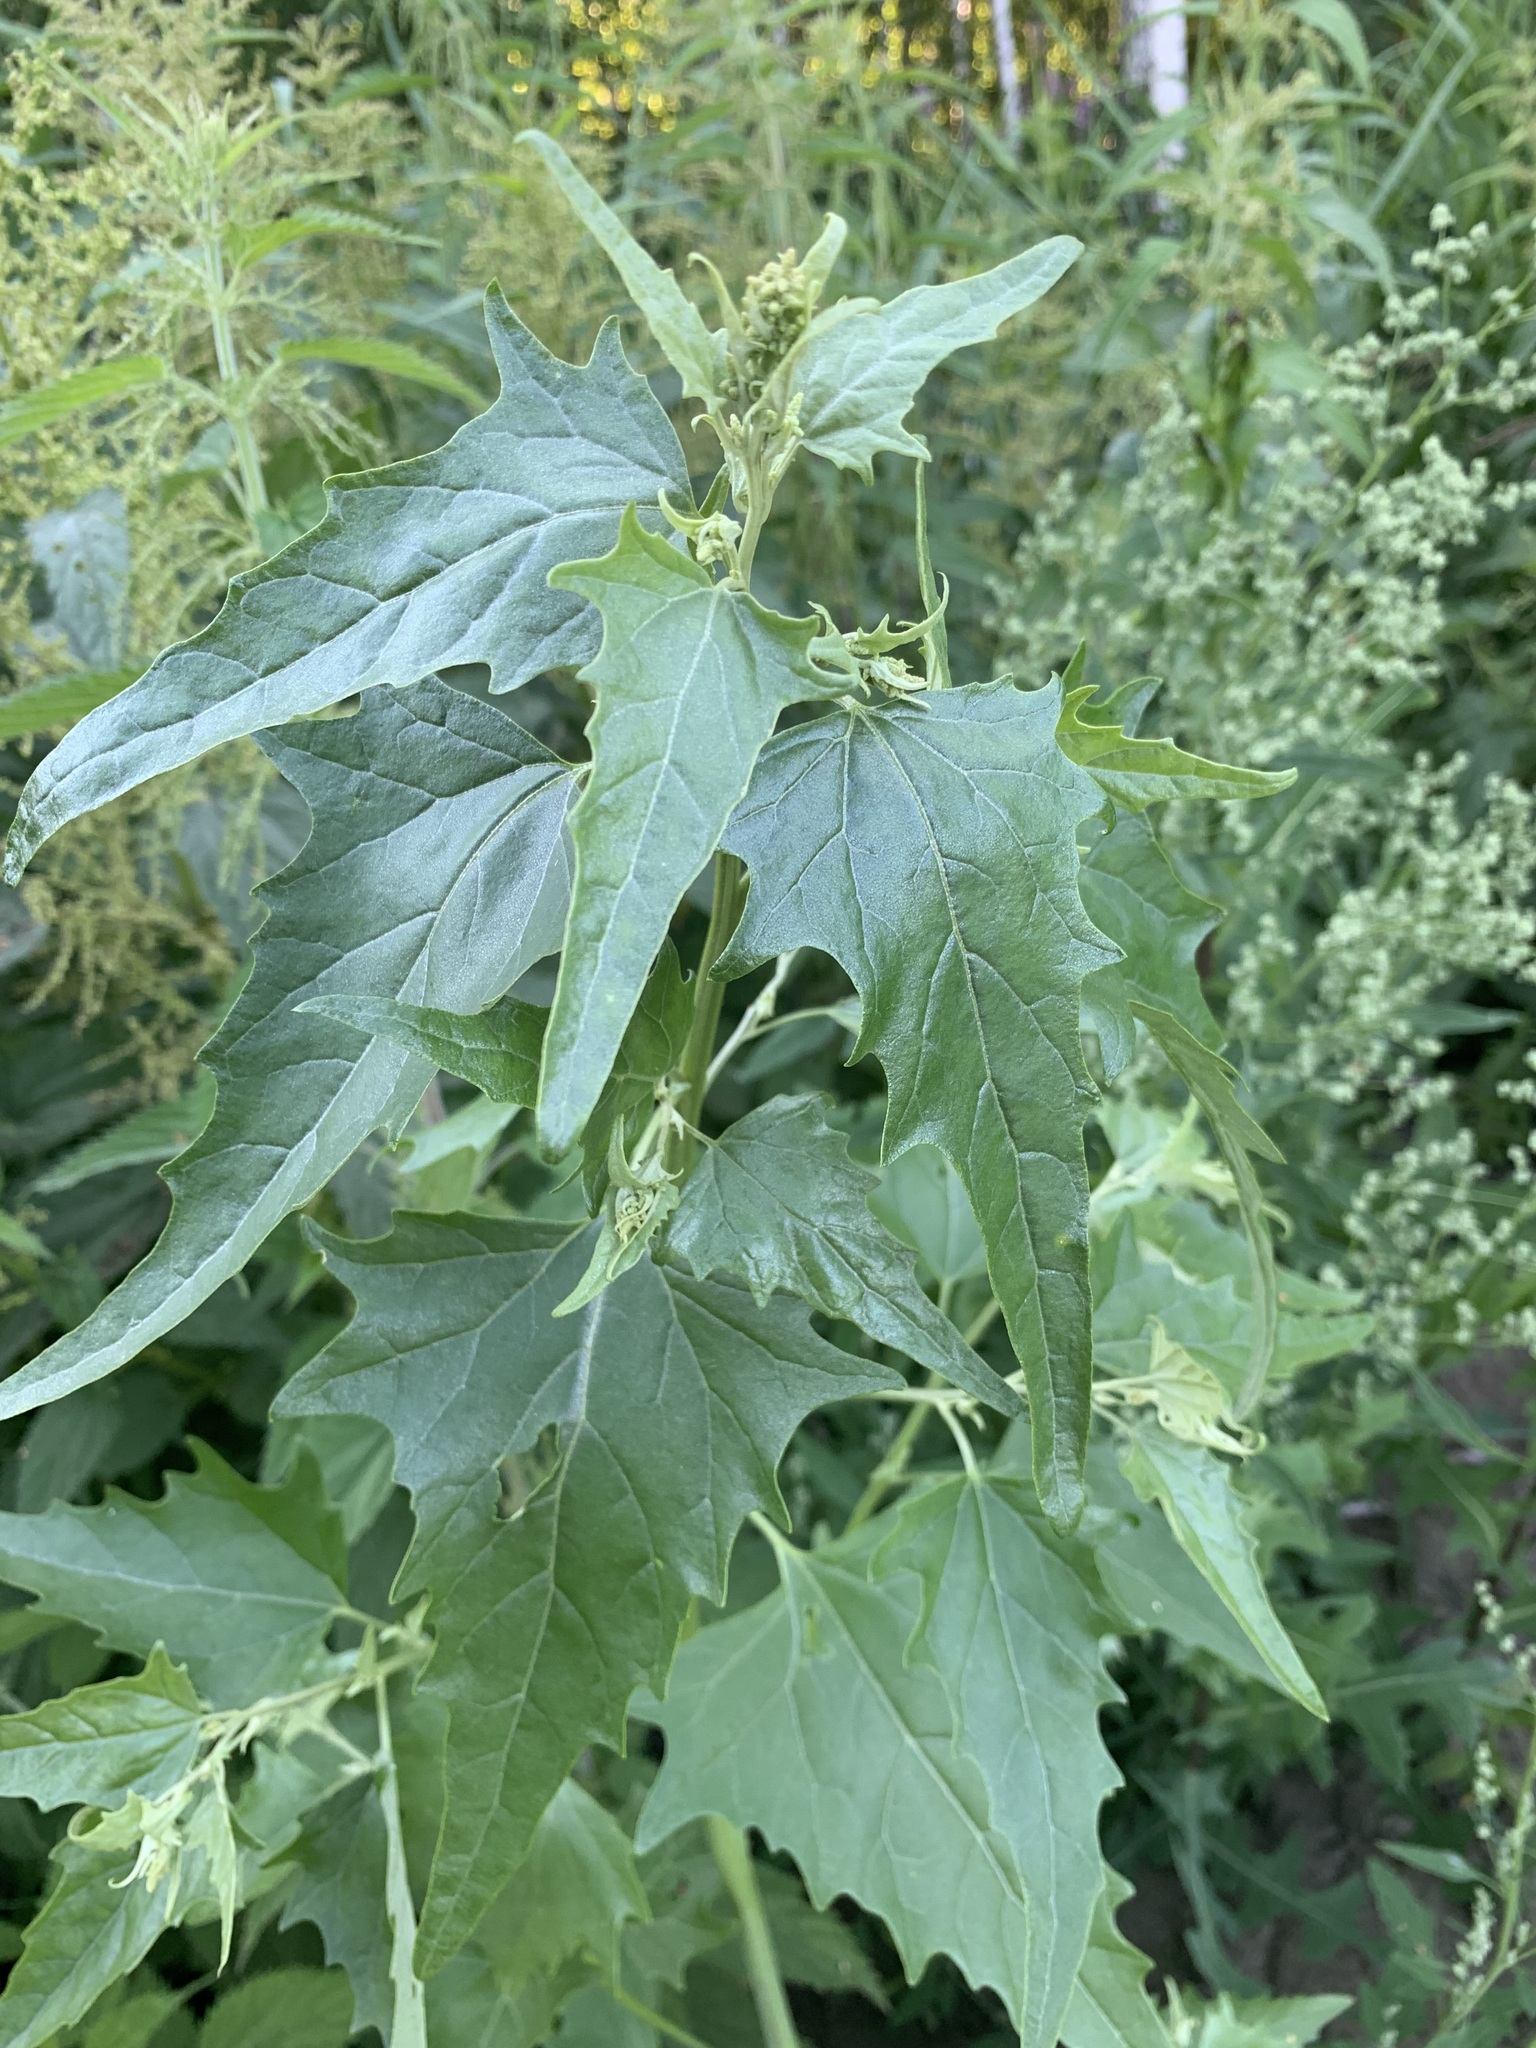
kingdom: Plantae
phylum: Tracheophyta
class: Magnoliopsida
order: Caryophyllales
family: Amaranthaceae
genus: Atriplex
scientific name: Atriplex sagittata
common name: Purple orache
